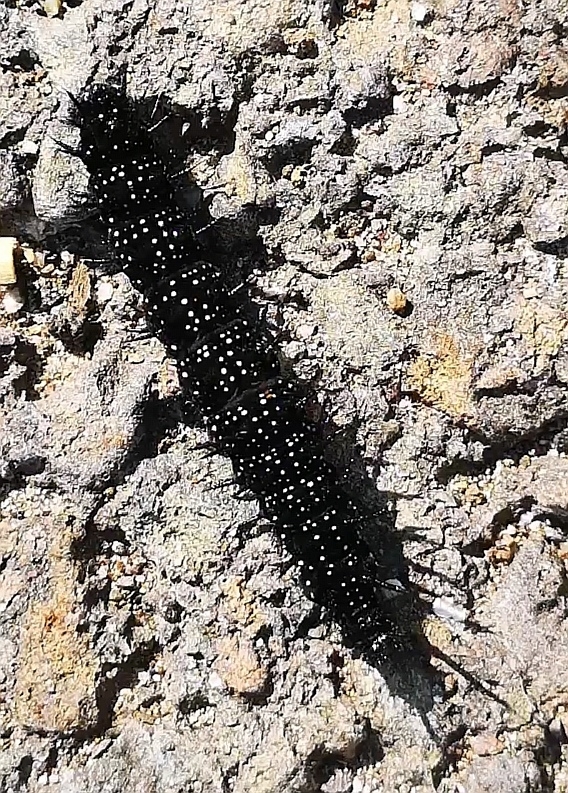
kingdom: Animalia
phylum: Arthropoda
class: Insecta
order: Lepidoptera
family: Nymphalidae
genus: Aglais
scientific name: Aglais io
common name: Peacock
